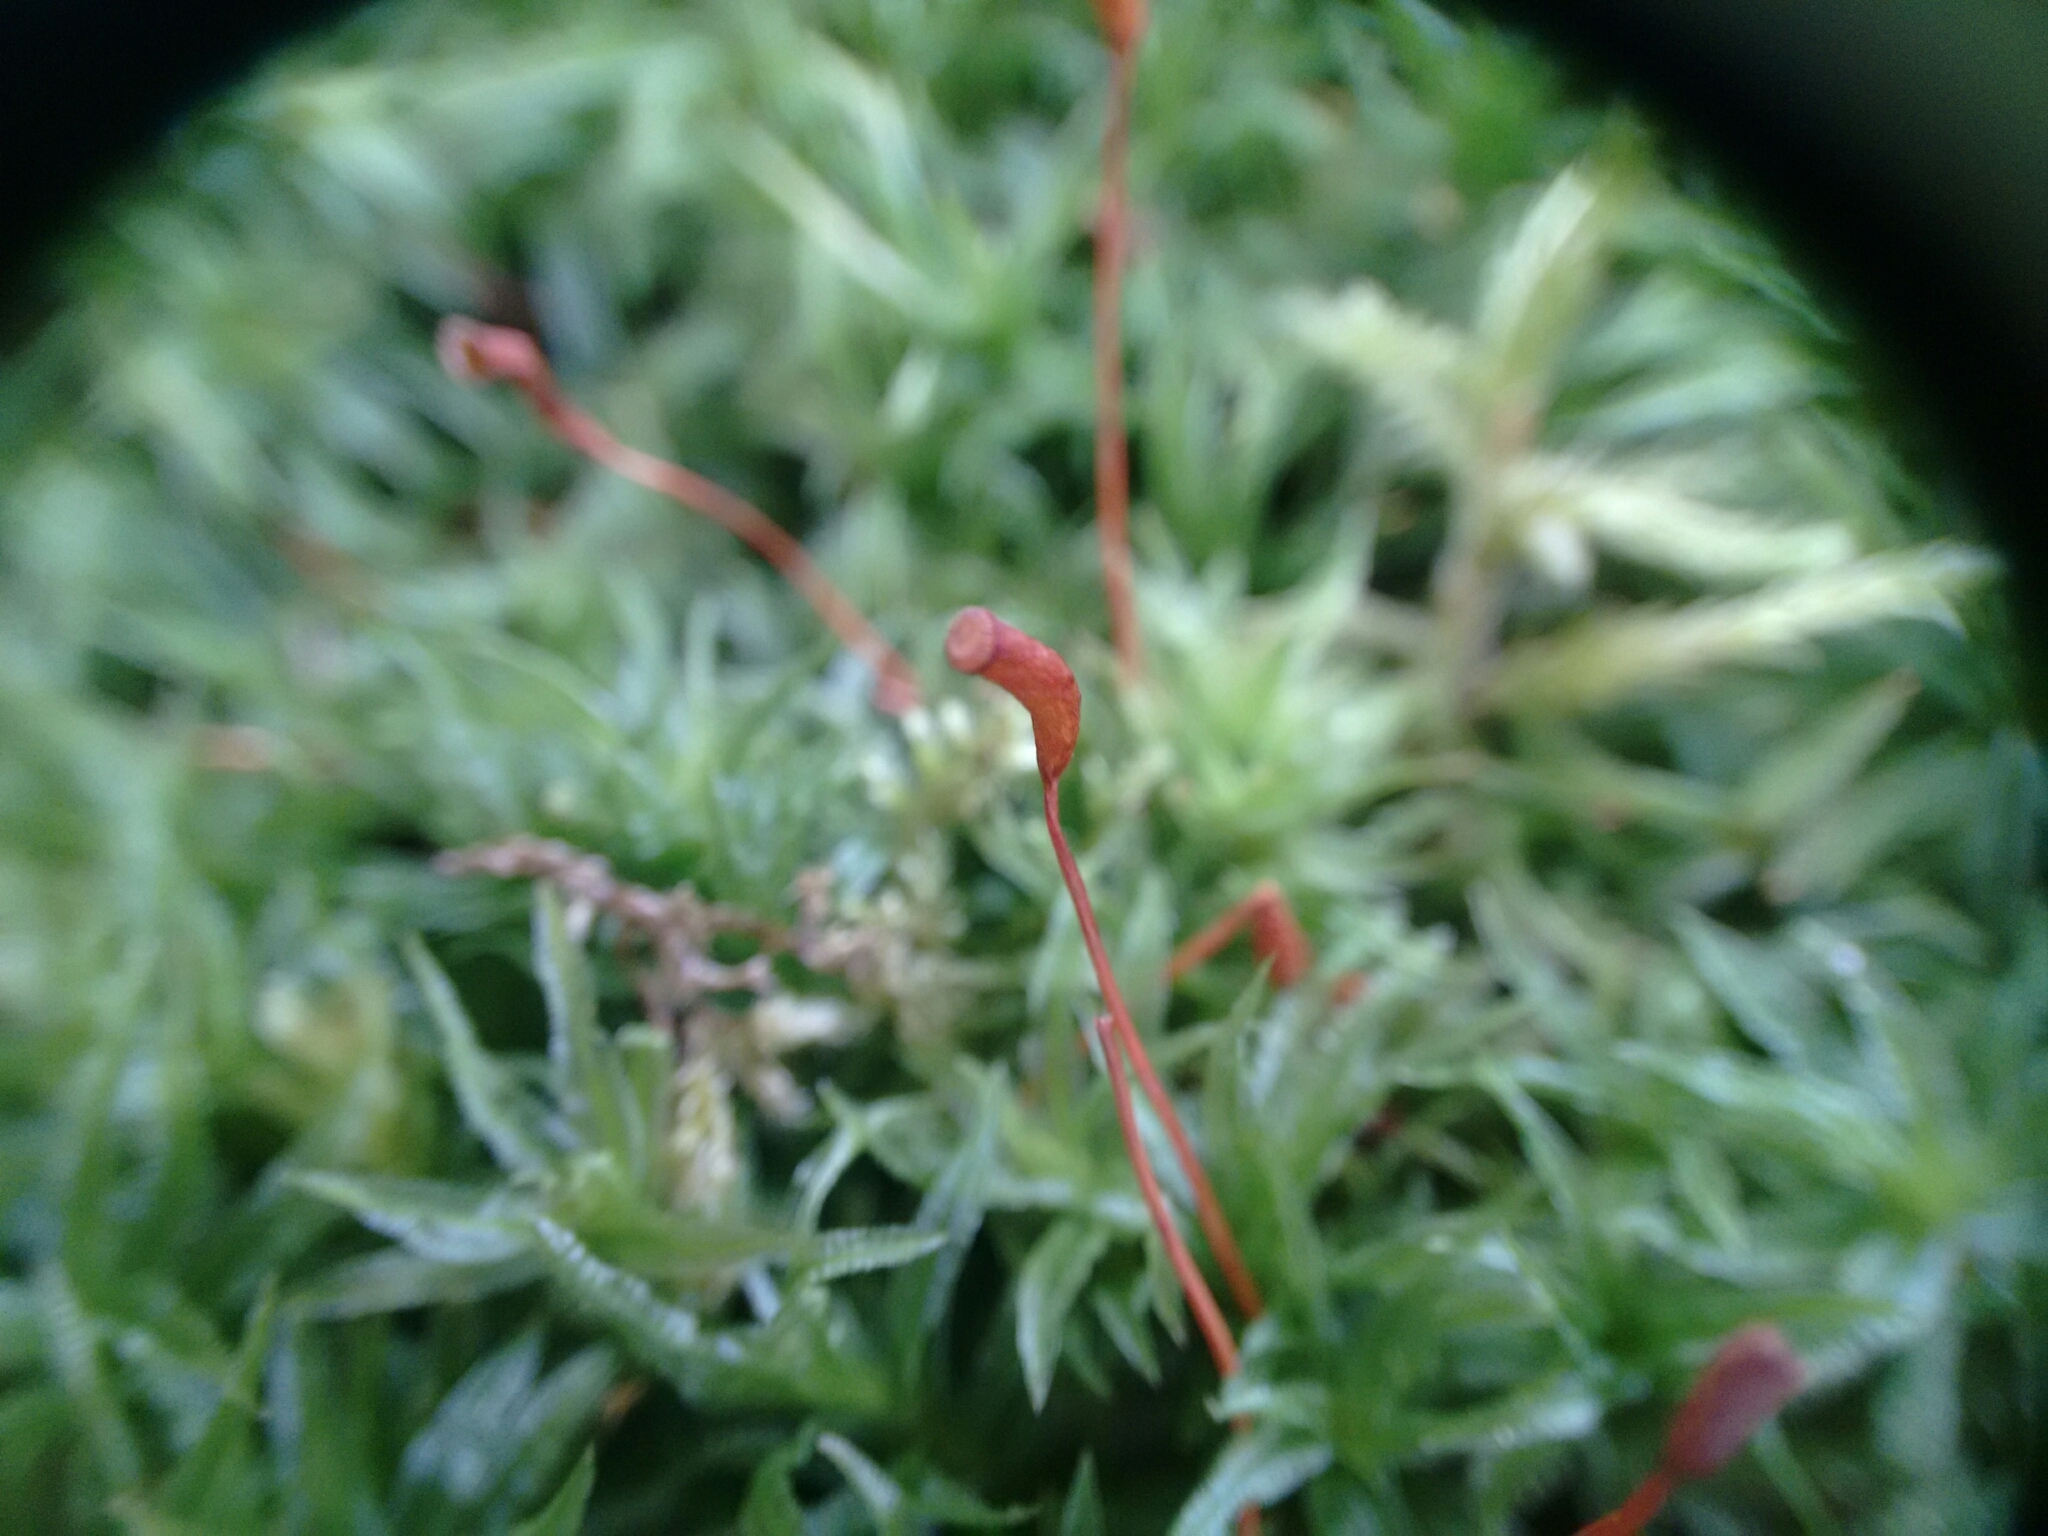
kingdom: Plantae
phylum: Bryophyta
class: Polytrichopsida
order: Polytrichales
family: Polytrichaceae
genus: Atrichum
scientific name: Atrichum undulatum
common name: Common smoothcap
